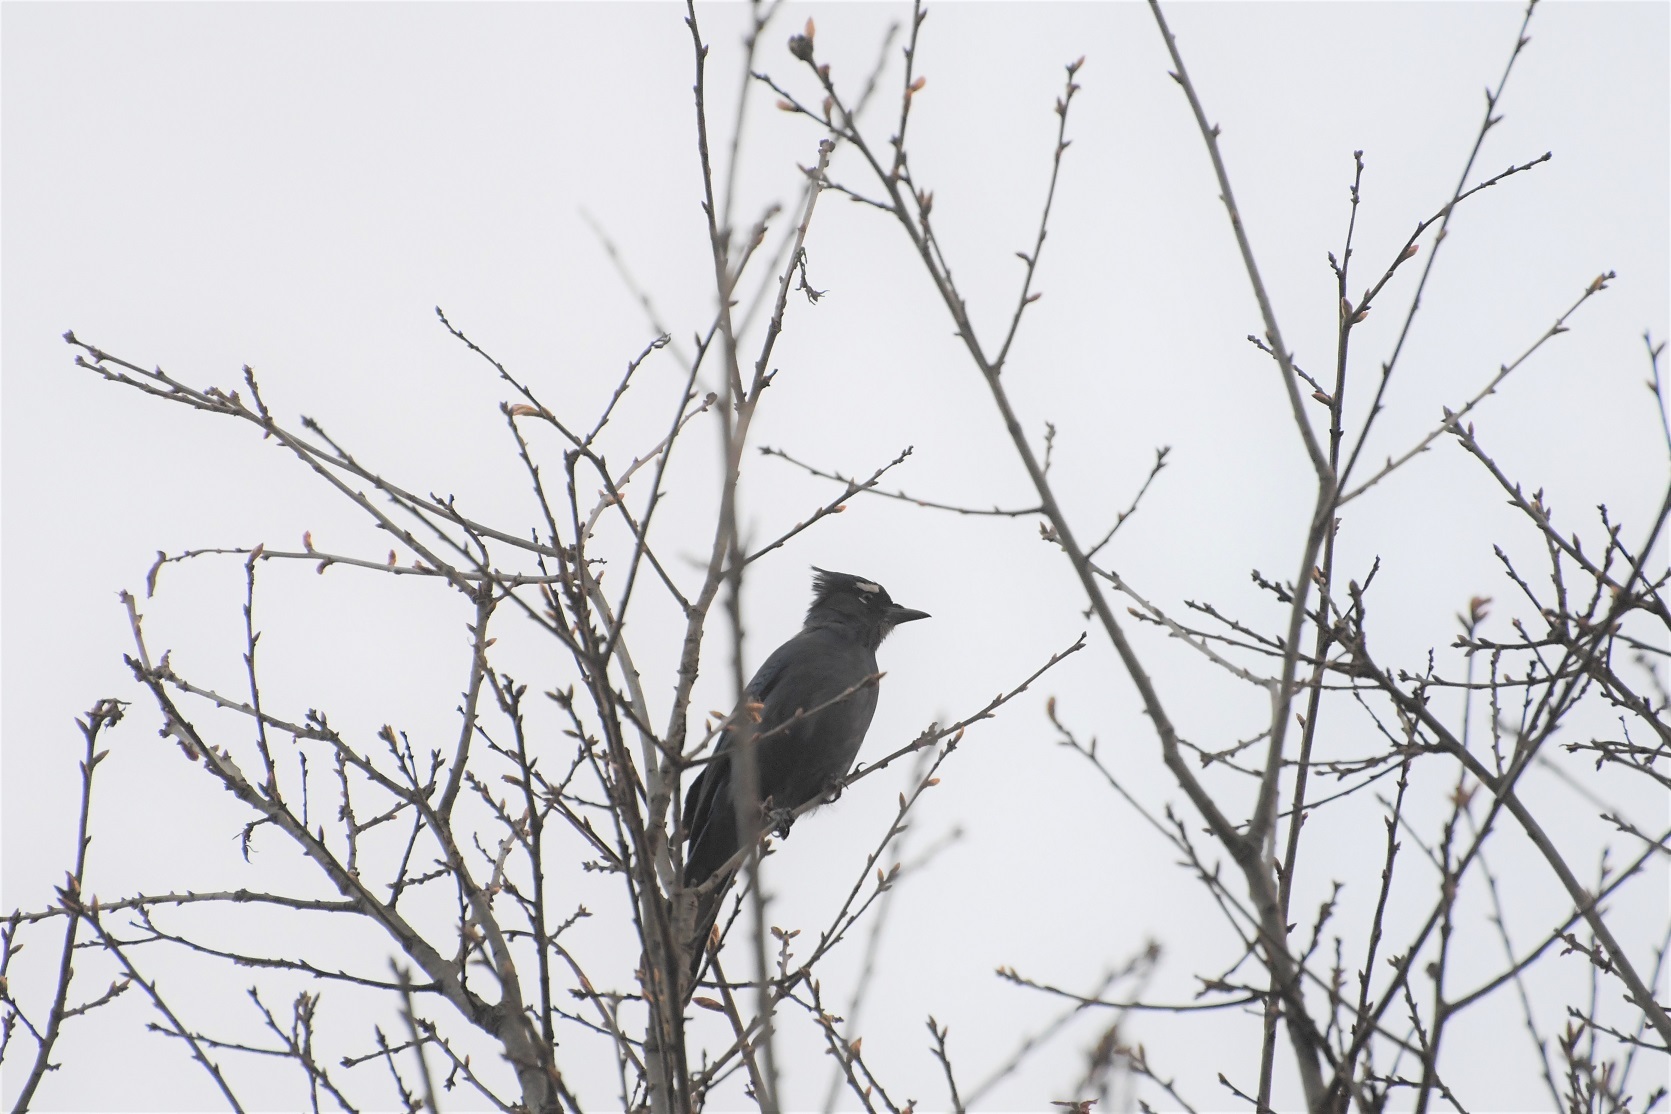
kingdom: Animalia
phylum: Chordata
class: Aves
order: Passeriformes
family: Corvidae
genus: Cyanocitta
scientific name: Cyanocitta stelleri
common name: Steller's jay
